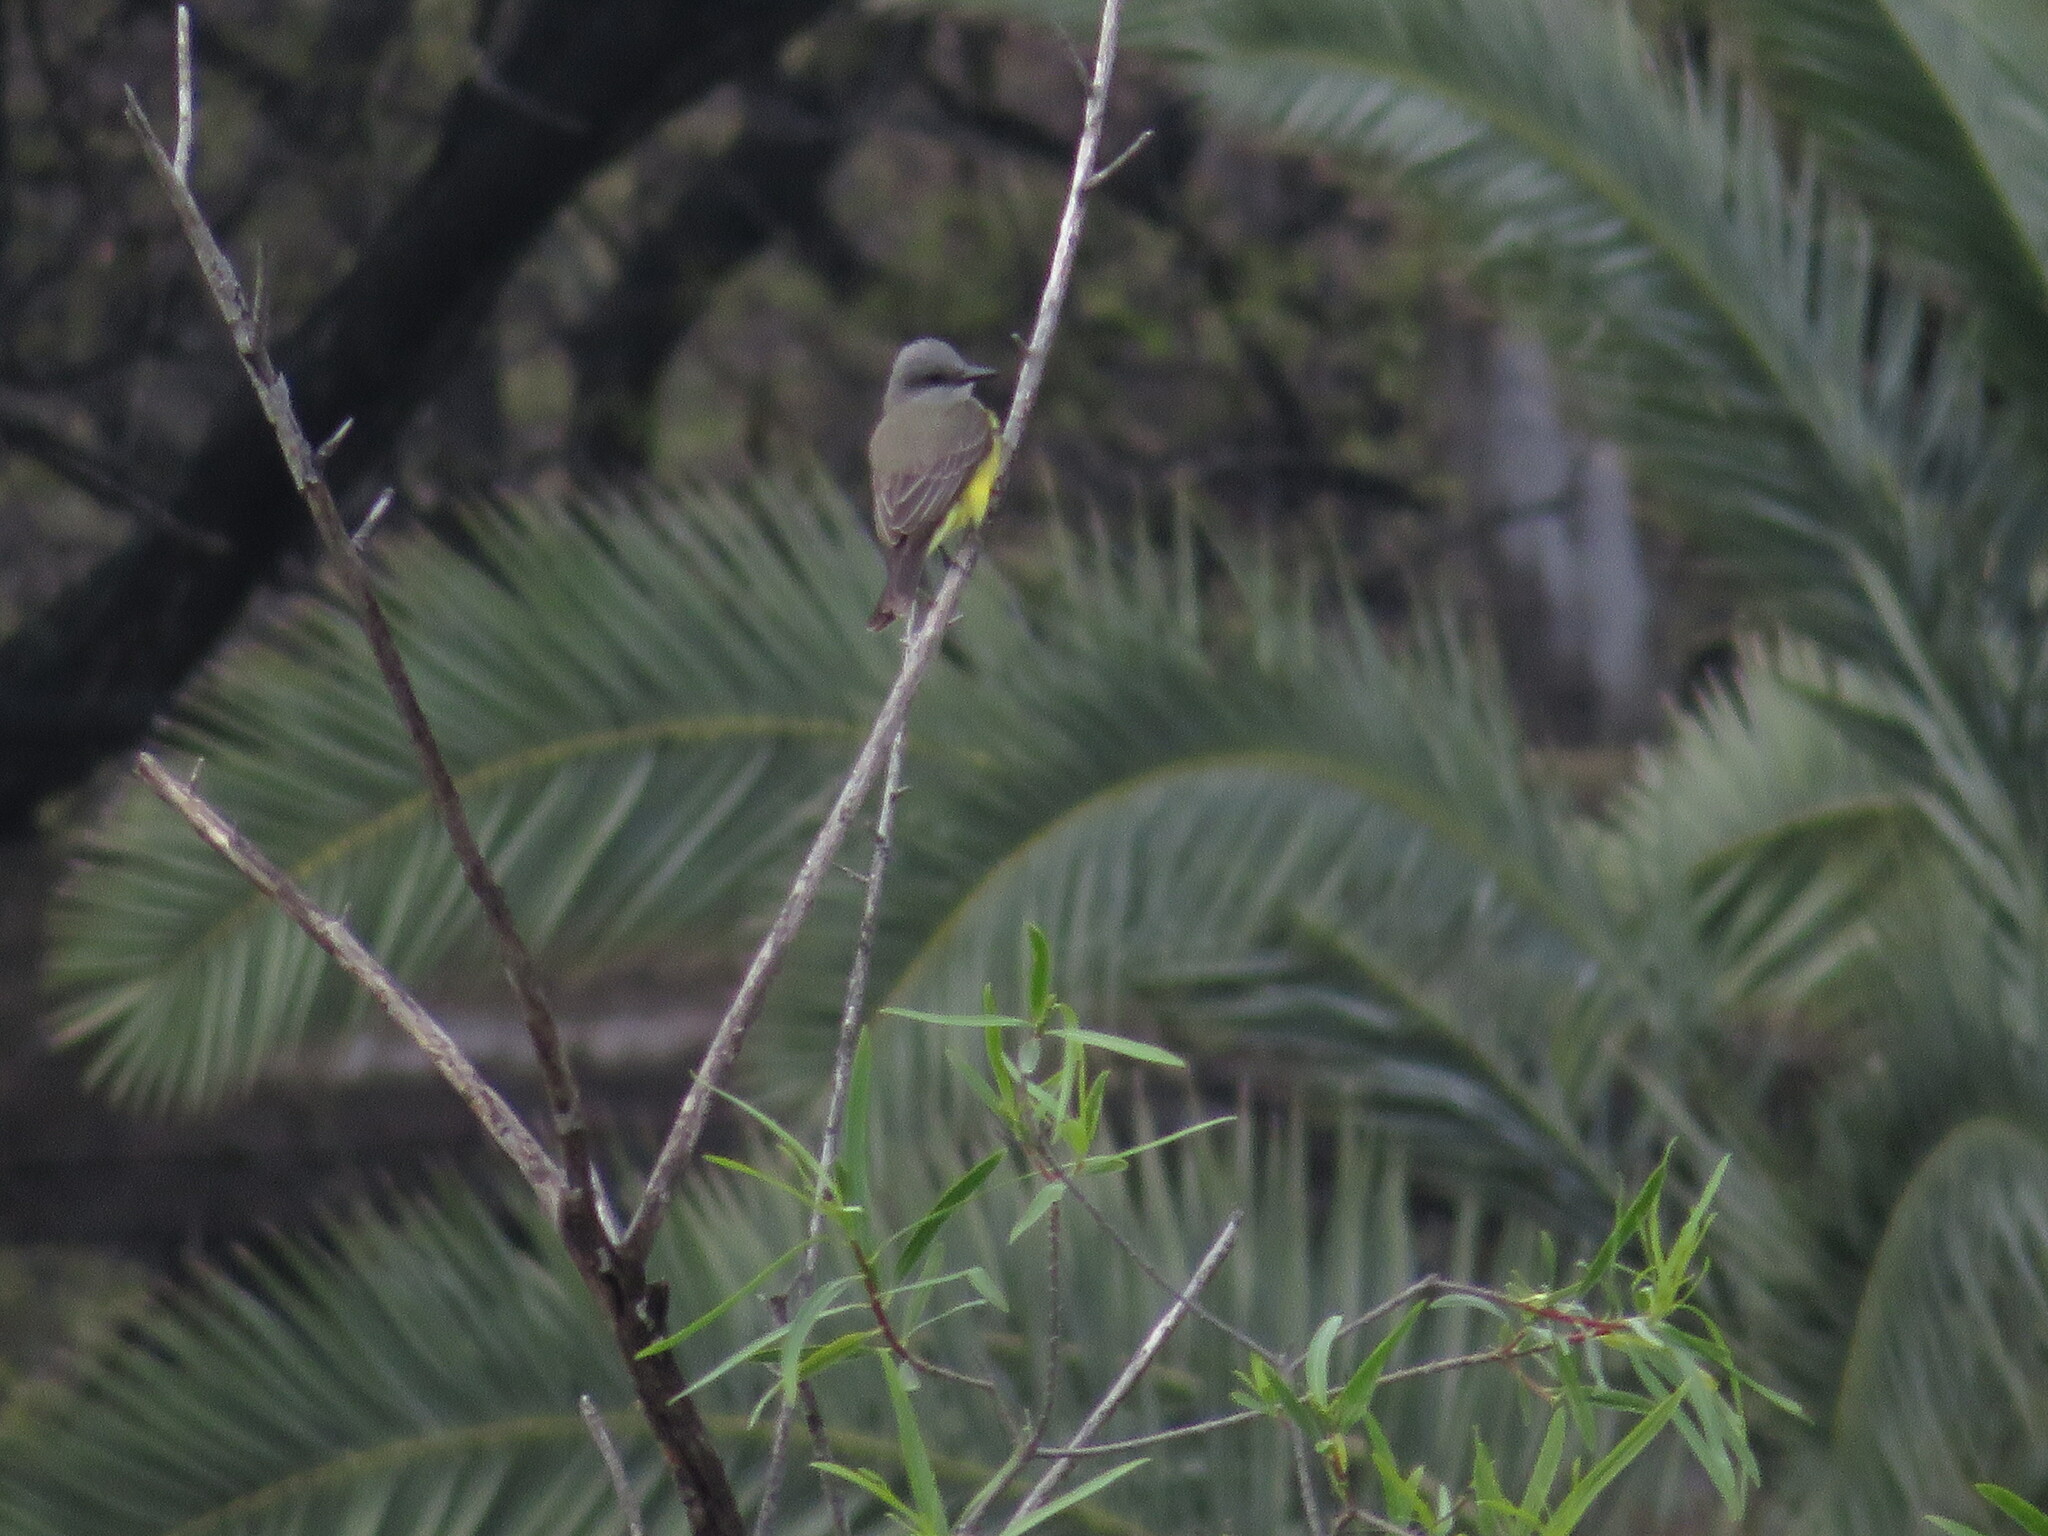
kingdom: Animalia
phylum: Chordata
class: Aves
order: Passeriformes
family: Tyrannidae
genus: Tyrannus
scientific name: Tyrannus melancholicus
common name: Tropical kingbird
